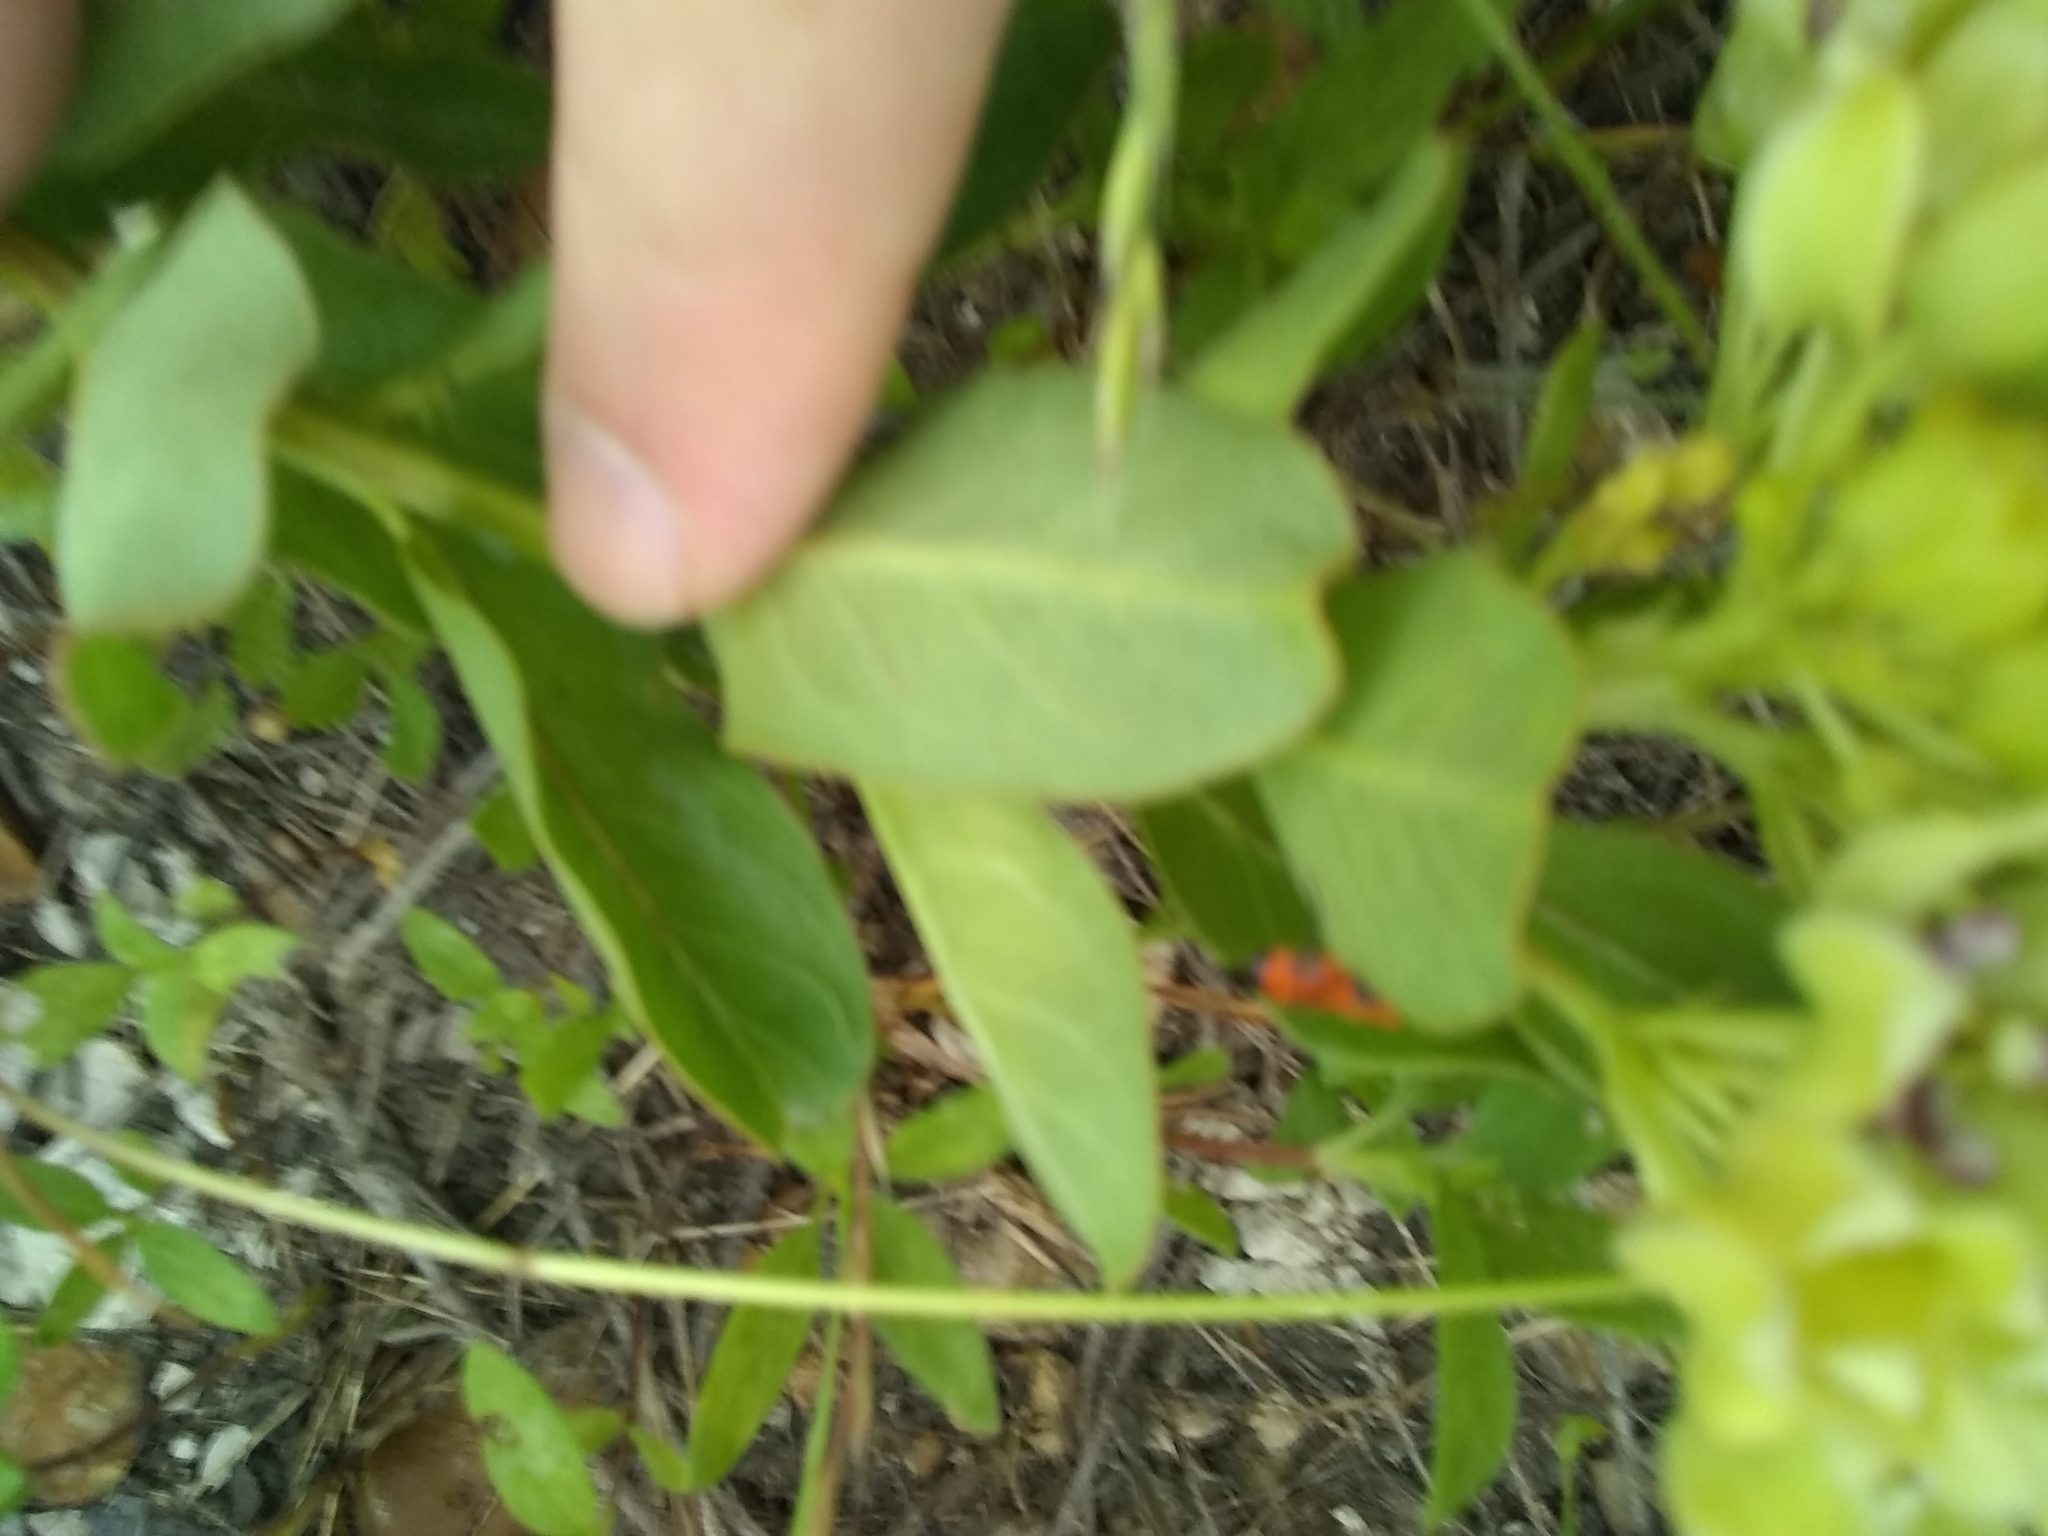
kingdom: Animalia
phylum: Arthropoda
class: Insecta
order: Hemiptera
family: Lygaeidae
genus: Oncopeltus
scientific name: Oncopeltus fasciatus
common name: Large milkweed bug
